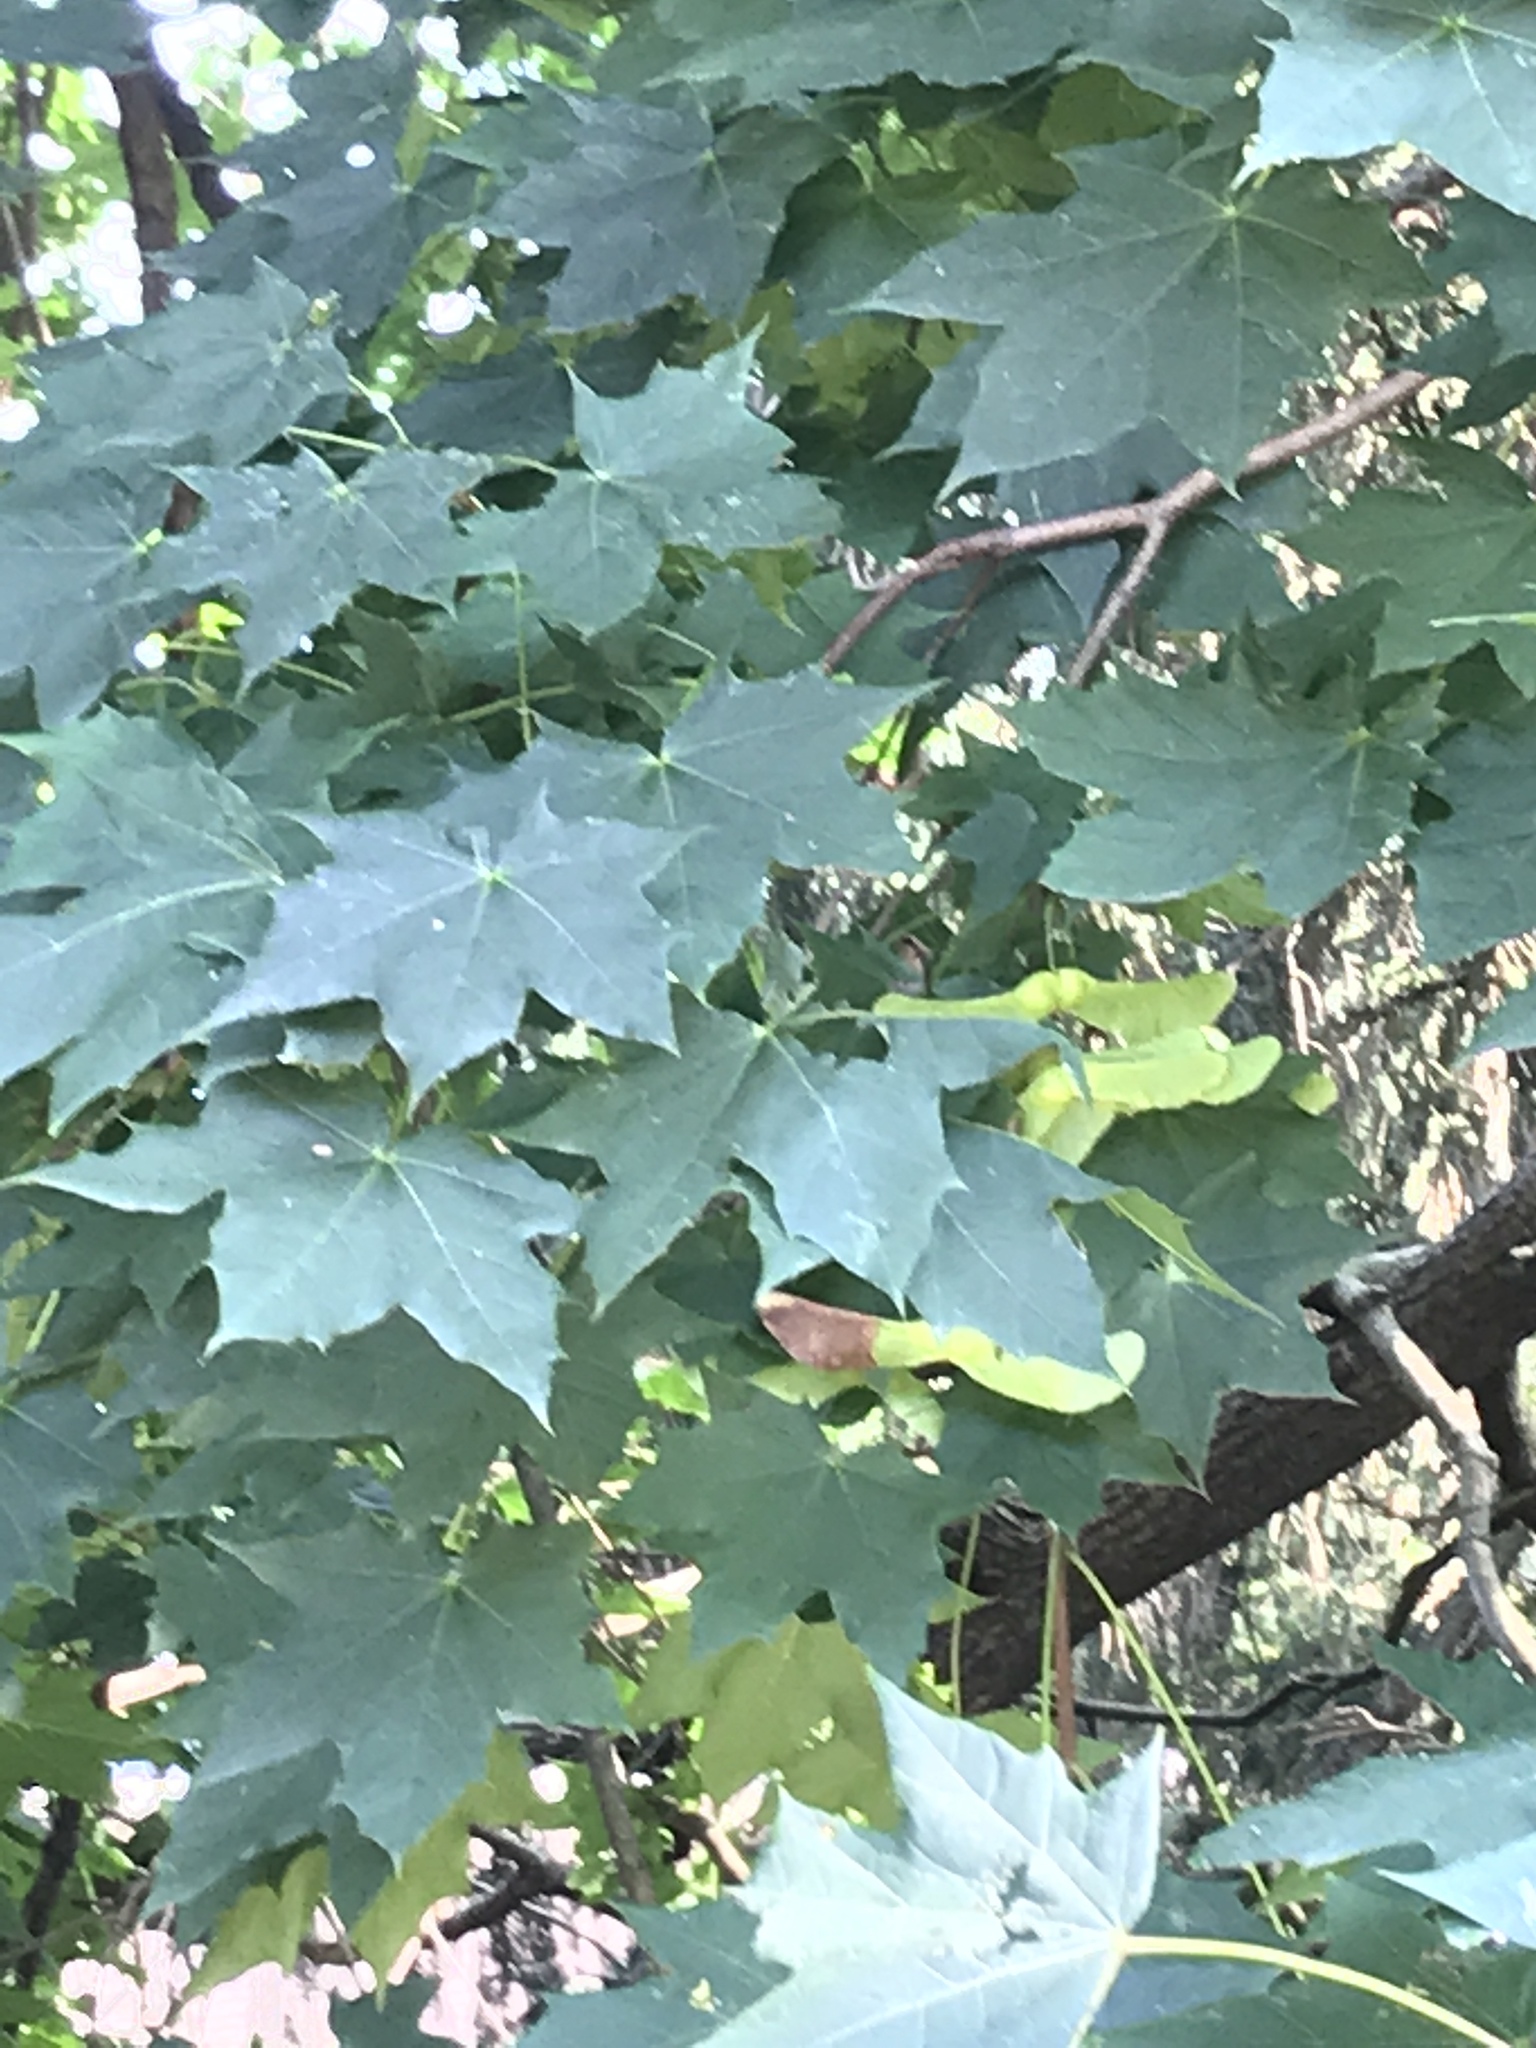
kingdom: Plantae
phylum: Tracheophyta
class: Magnoliopsida
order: Sapindales
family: Sapindaceae
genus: Acer
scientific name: Acer platanoides
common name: Norway maple
